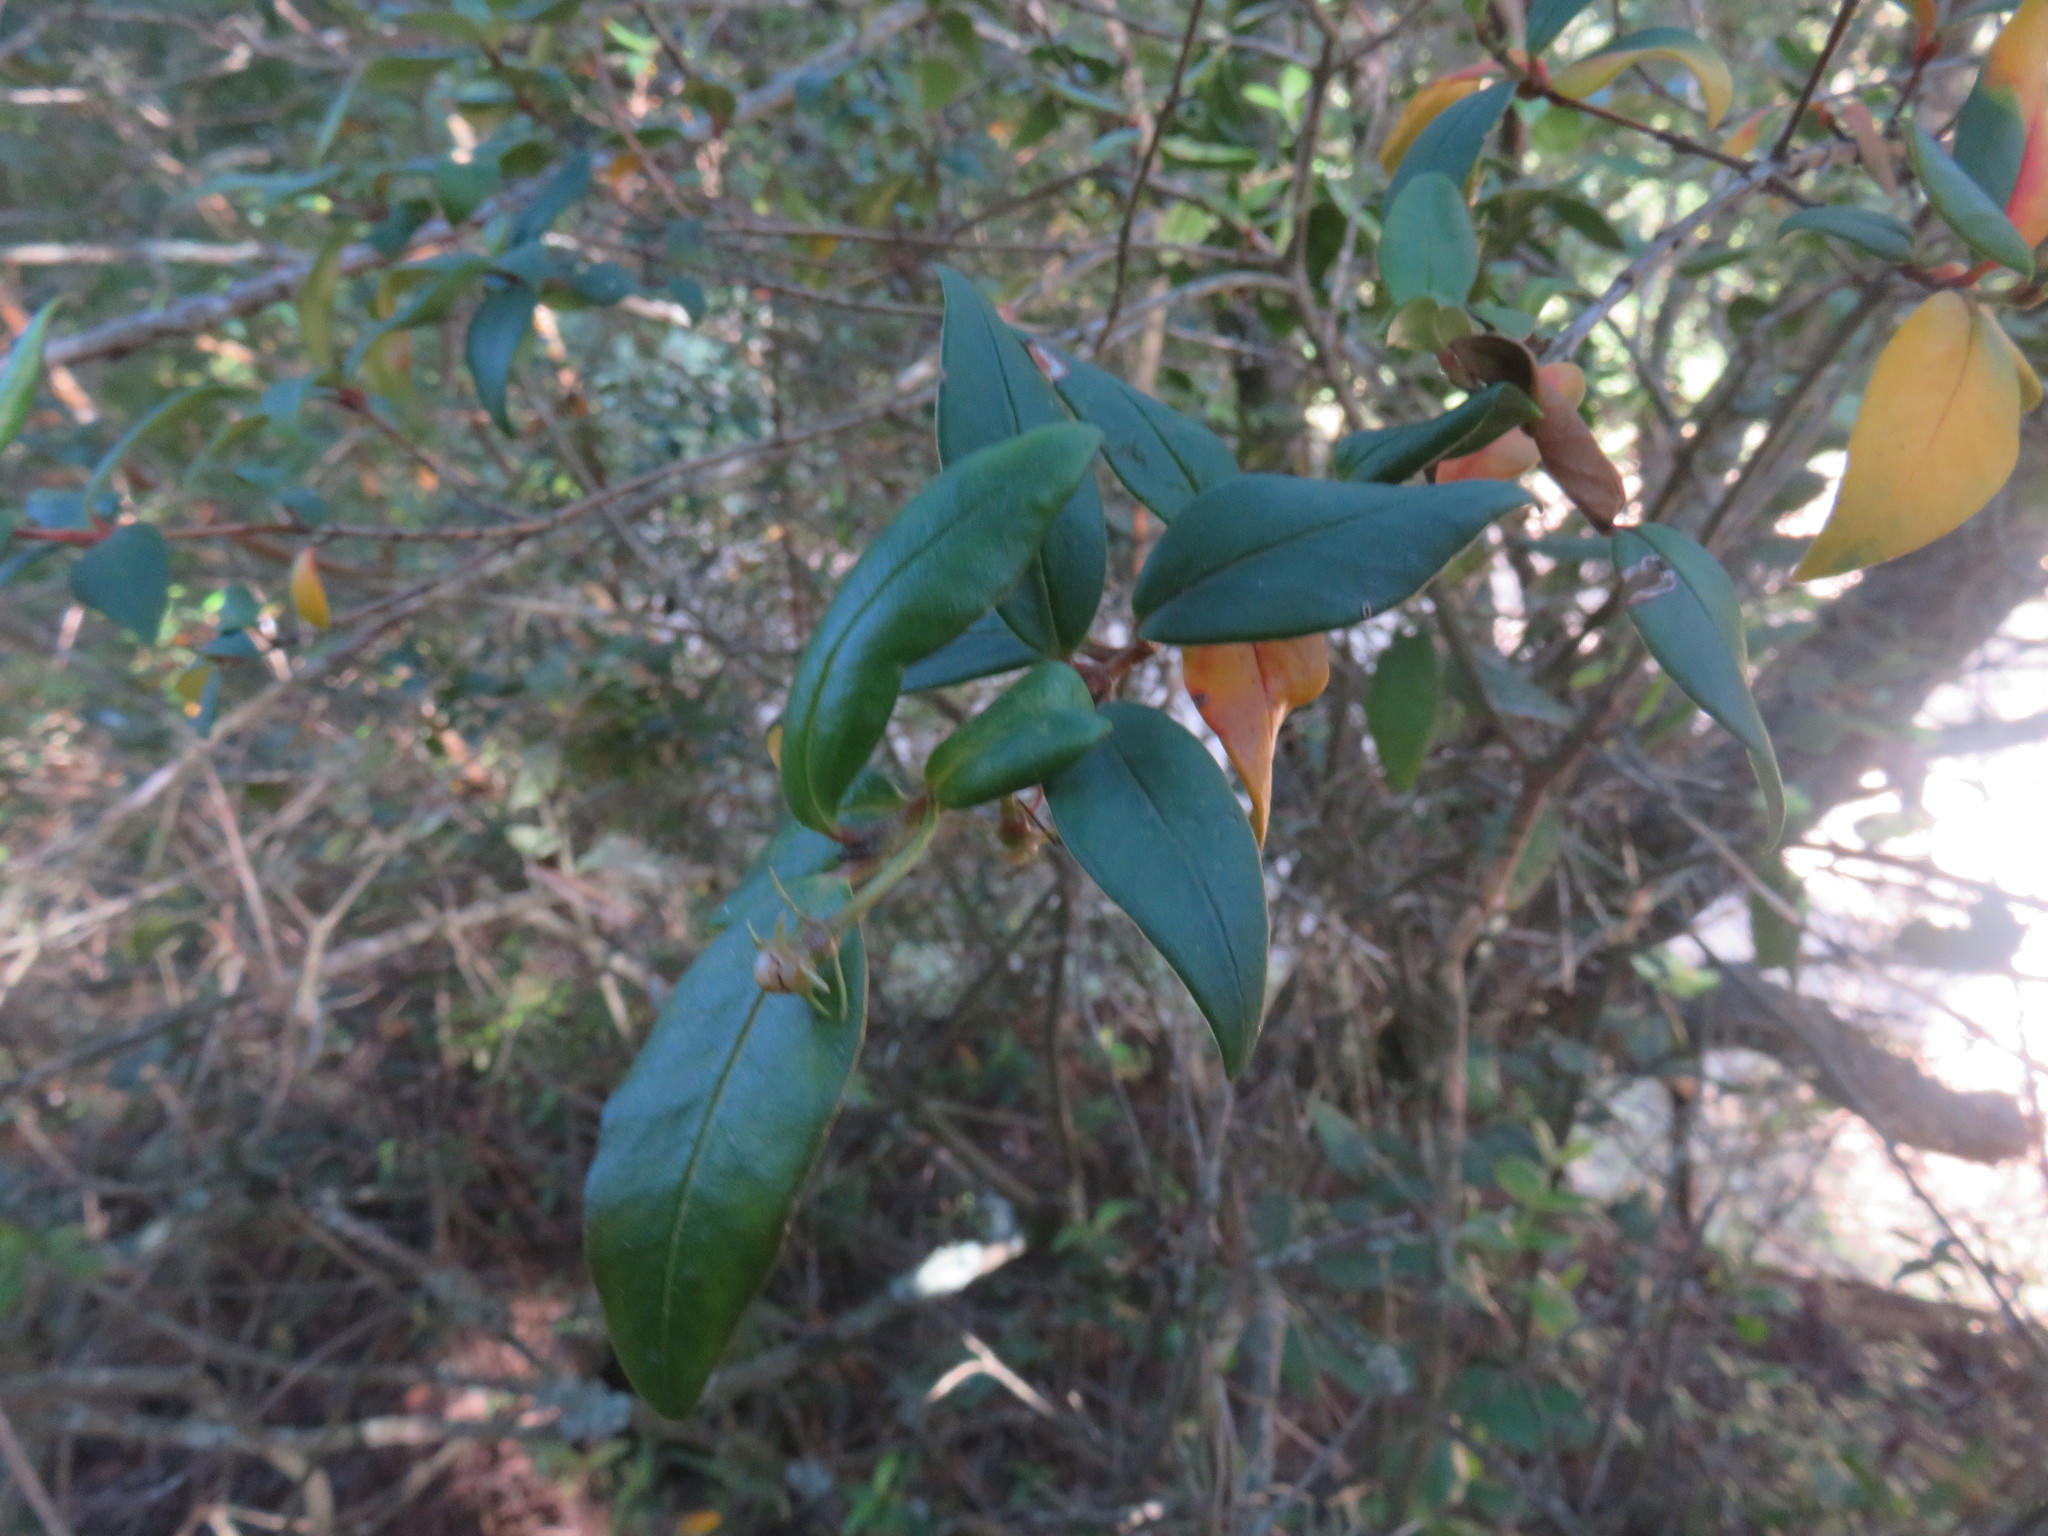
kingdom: Plantae
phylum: Tracheophyta
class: Magnoliopsida
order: Myrtales
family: Myrtaceae
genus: Ugni
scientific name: Ugni molinae
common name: Chilean-guava
